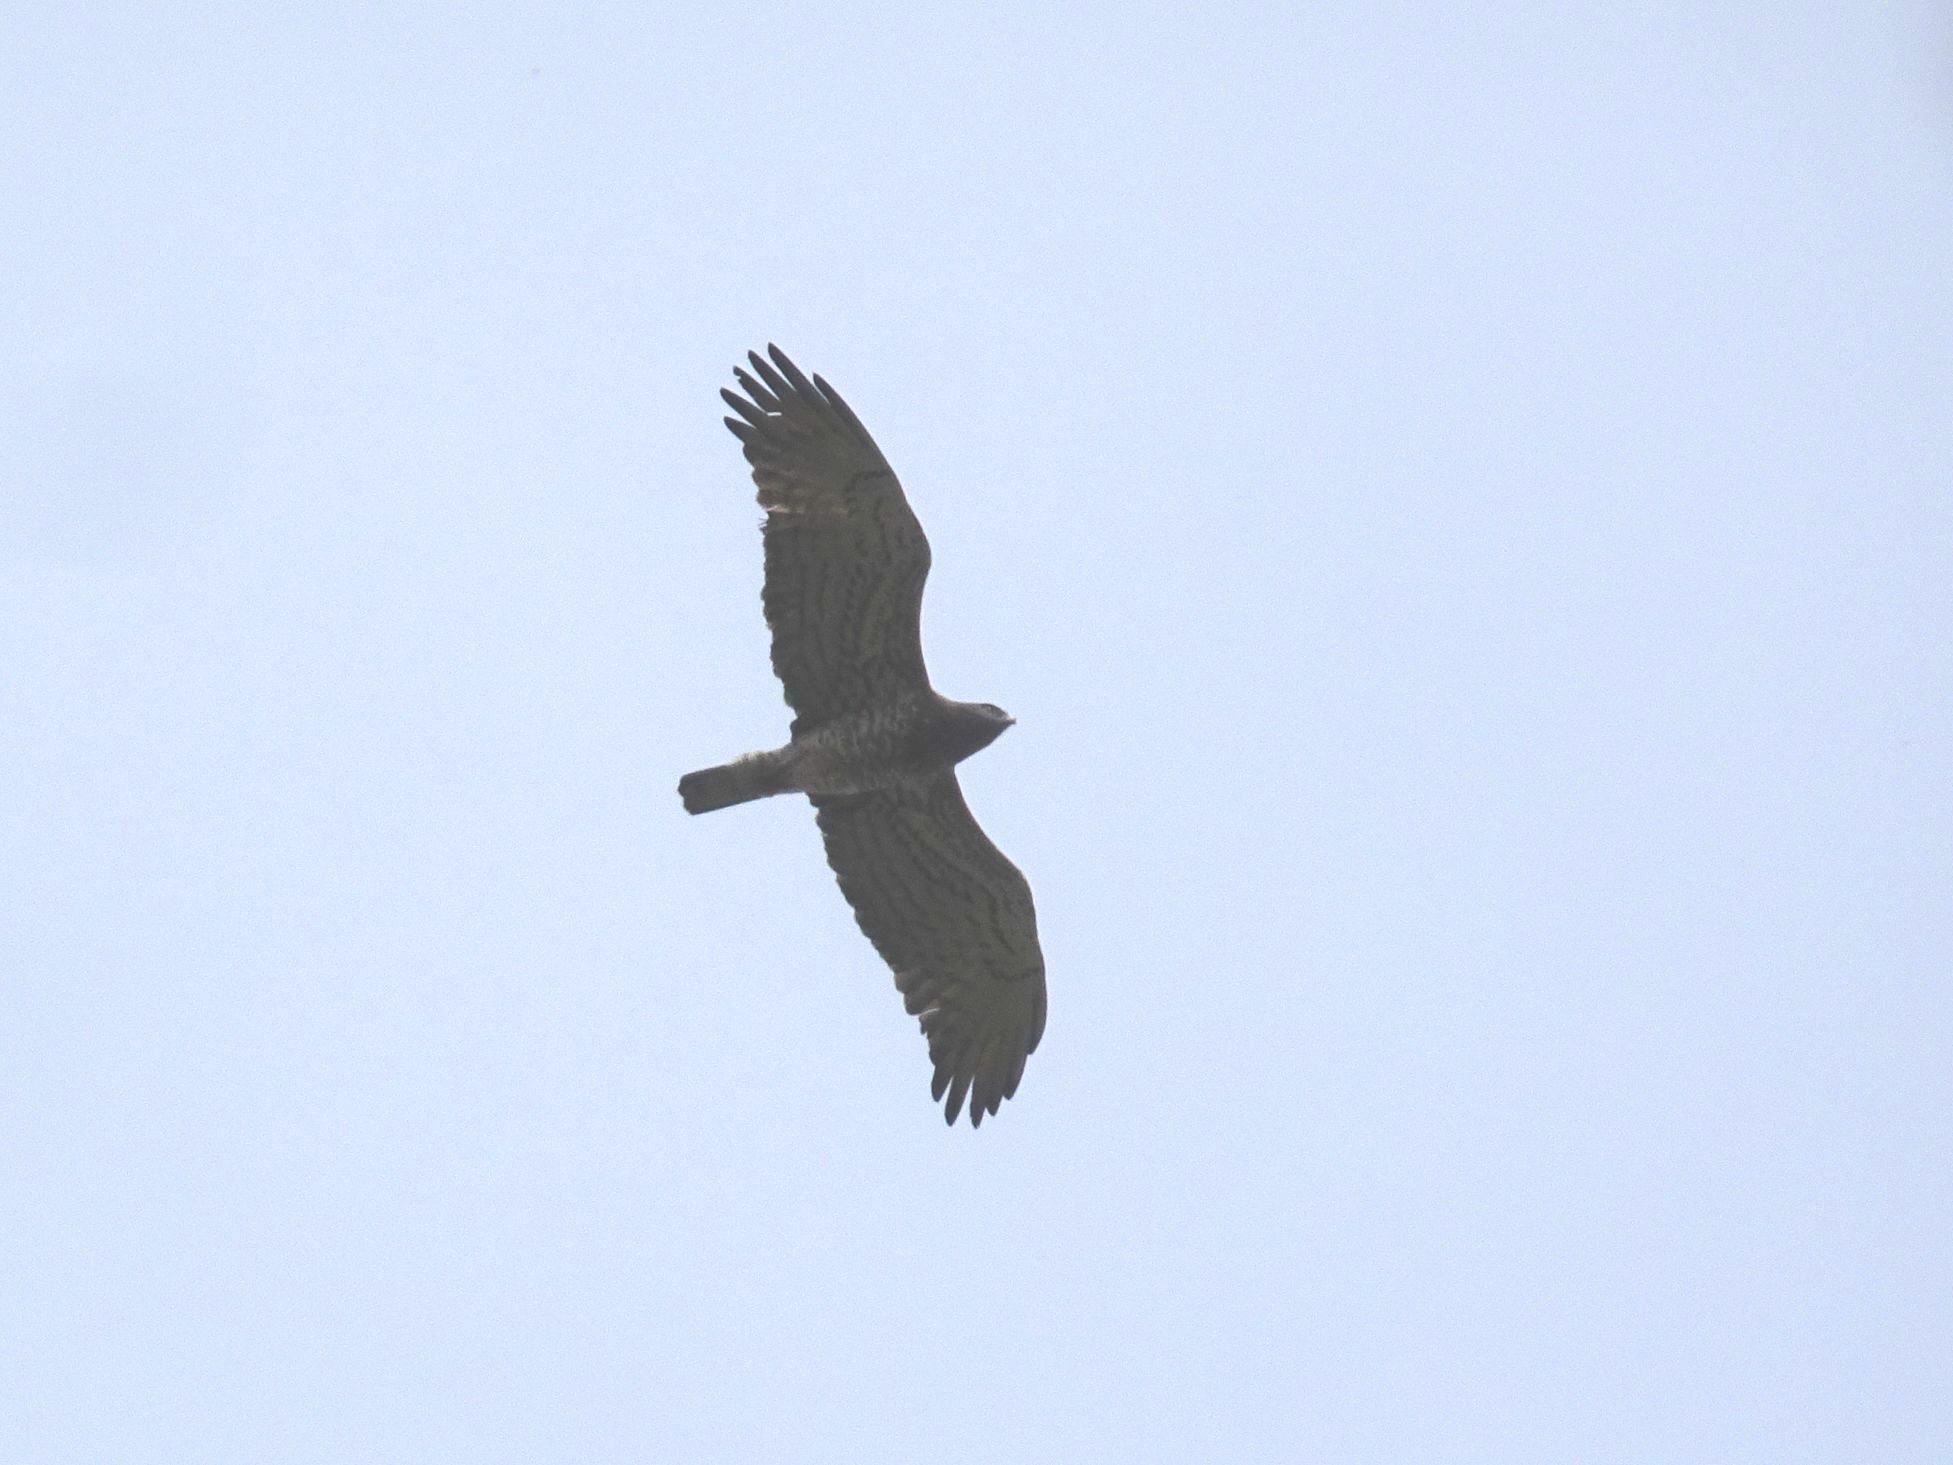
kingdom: Animalia
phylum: Chordata
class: Aves
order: Accipitriformes
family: Accipitridae
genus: Circaetus
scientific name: Circaetus gallicus
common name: Short-toed snake eagle
